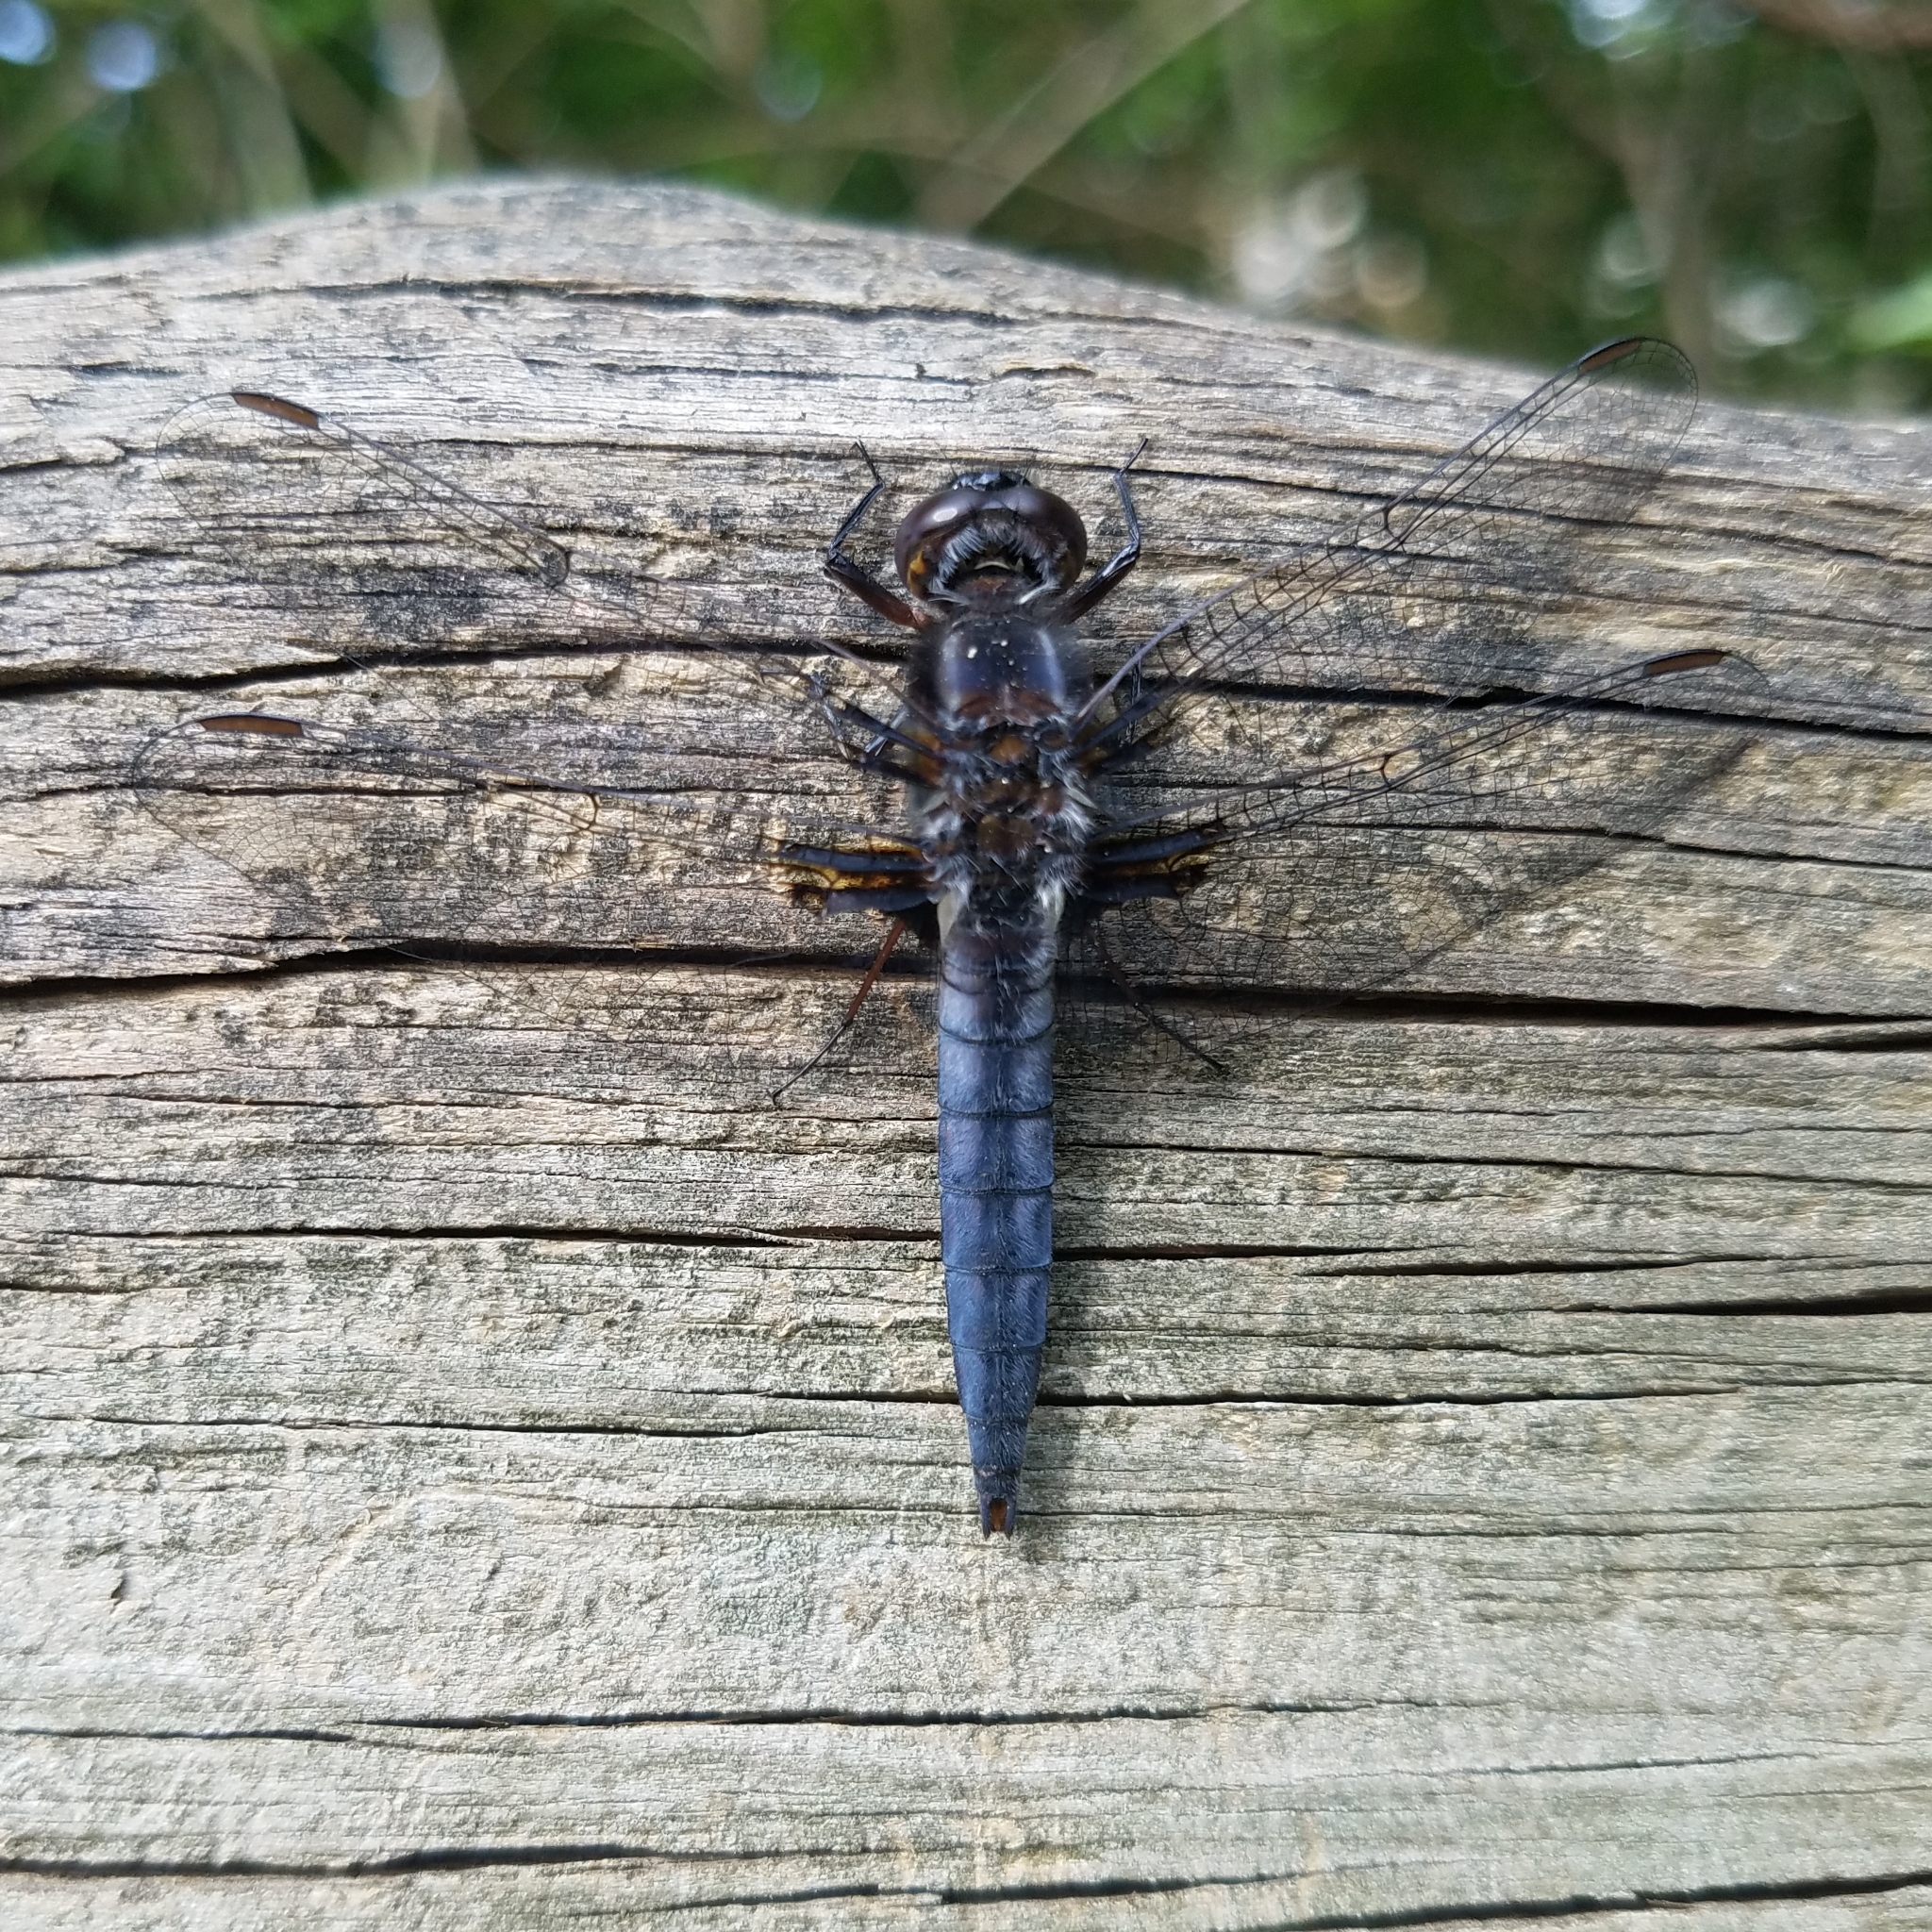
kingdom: Animalia
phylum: Arthropoda
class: Insecta
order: Odonata
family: Libellulidae
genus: Ladona
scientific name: Ladona deplanata
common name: Blue corporal
